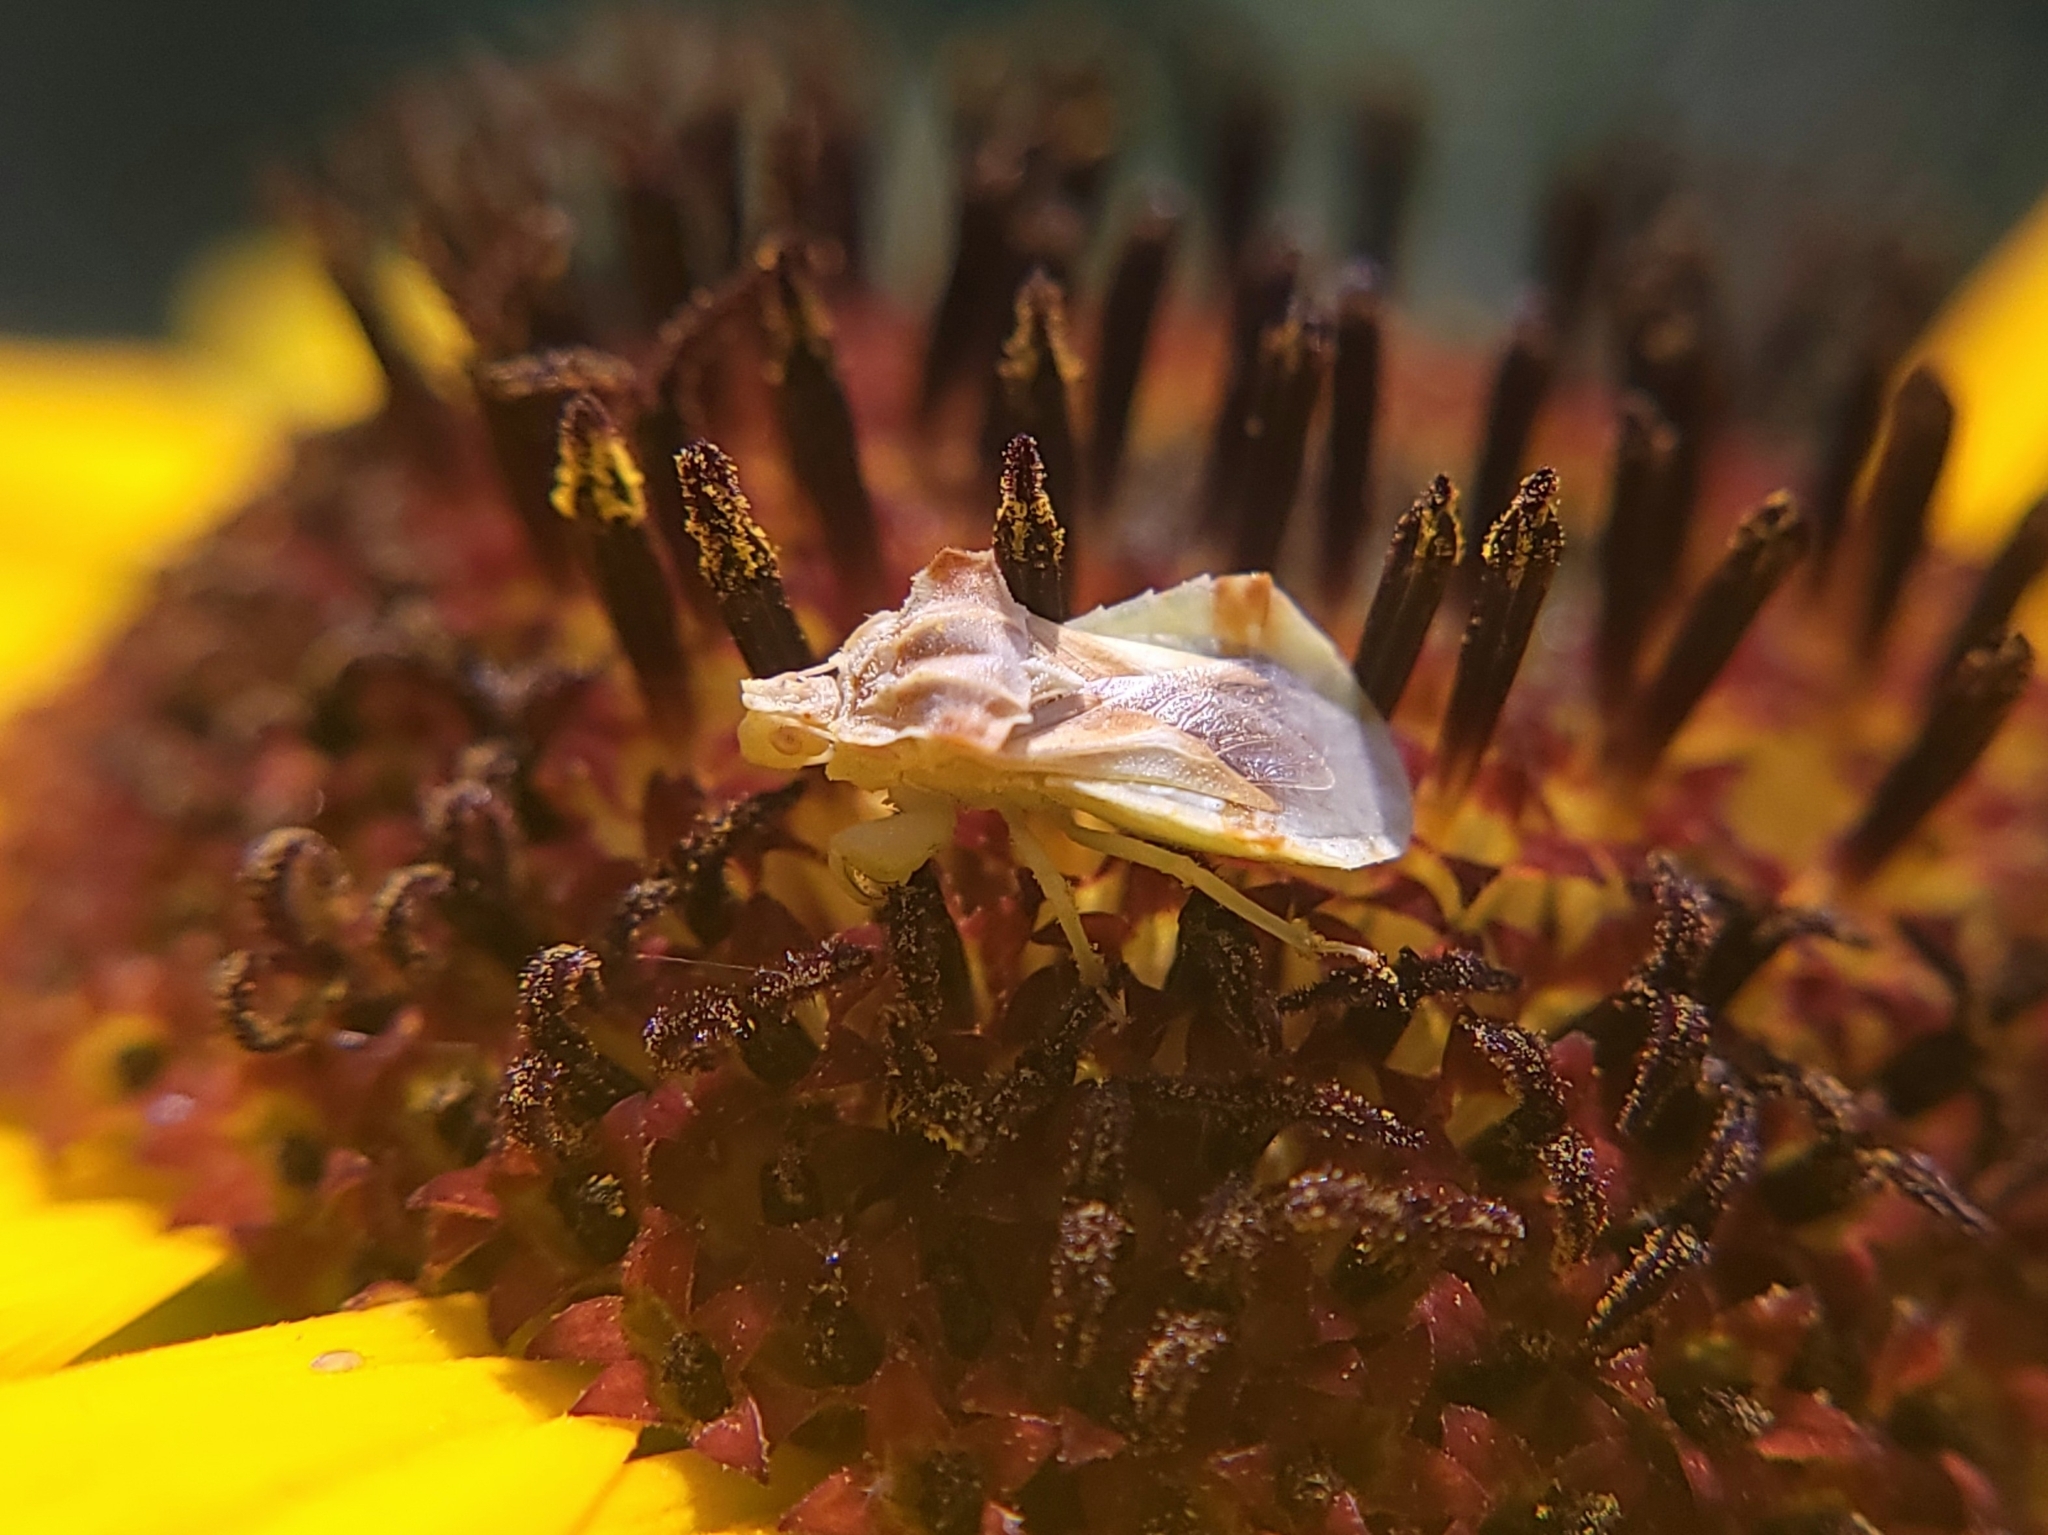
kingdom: Animalia
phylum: Arthropoda
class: Insecta
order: Hemiptera
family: Reduviidae
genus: Phymata
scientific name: Phymata americana
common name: Jagged ambush bug
